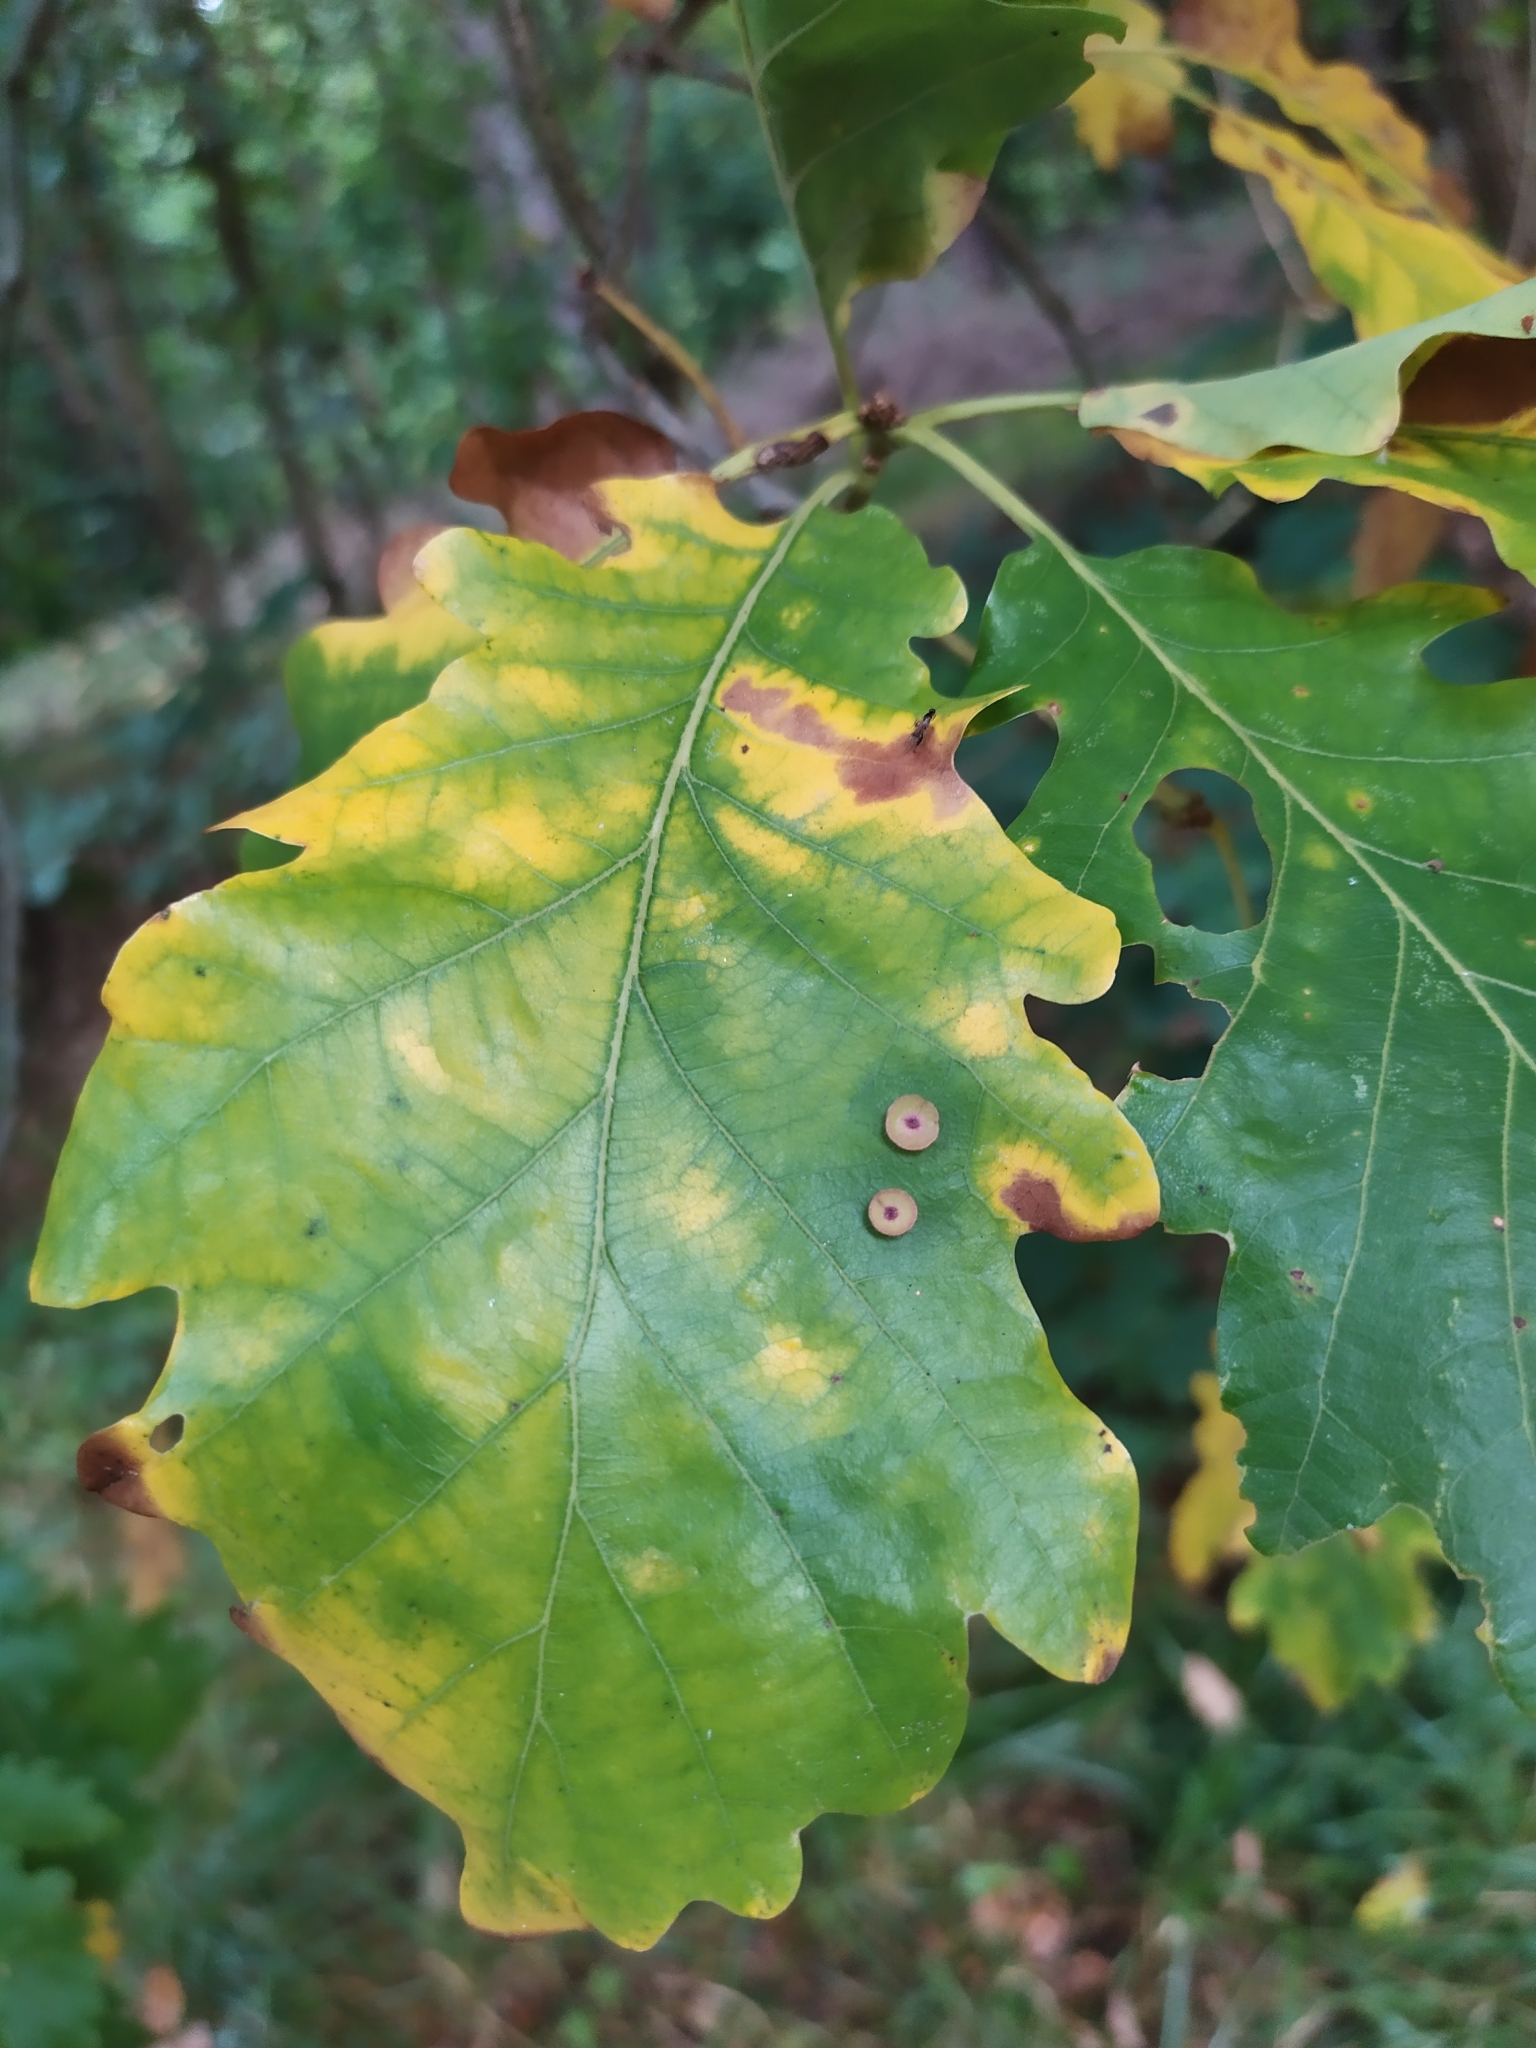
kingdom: Animalia
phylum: Arthropoda
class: Insecta
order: Hymenoptera
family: Cynipidae
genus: Neuroterus
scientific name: Neuroterus albipes
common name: Smooth spangle gall
